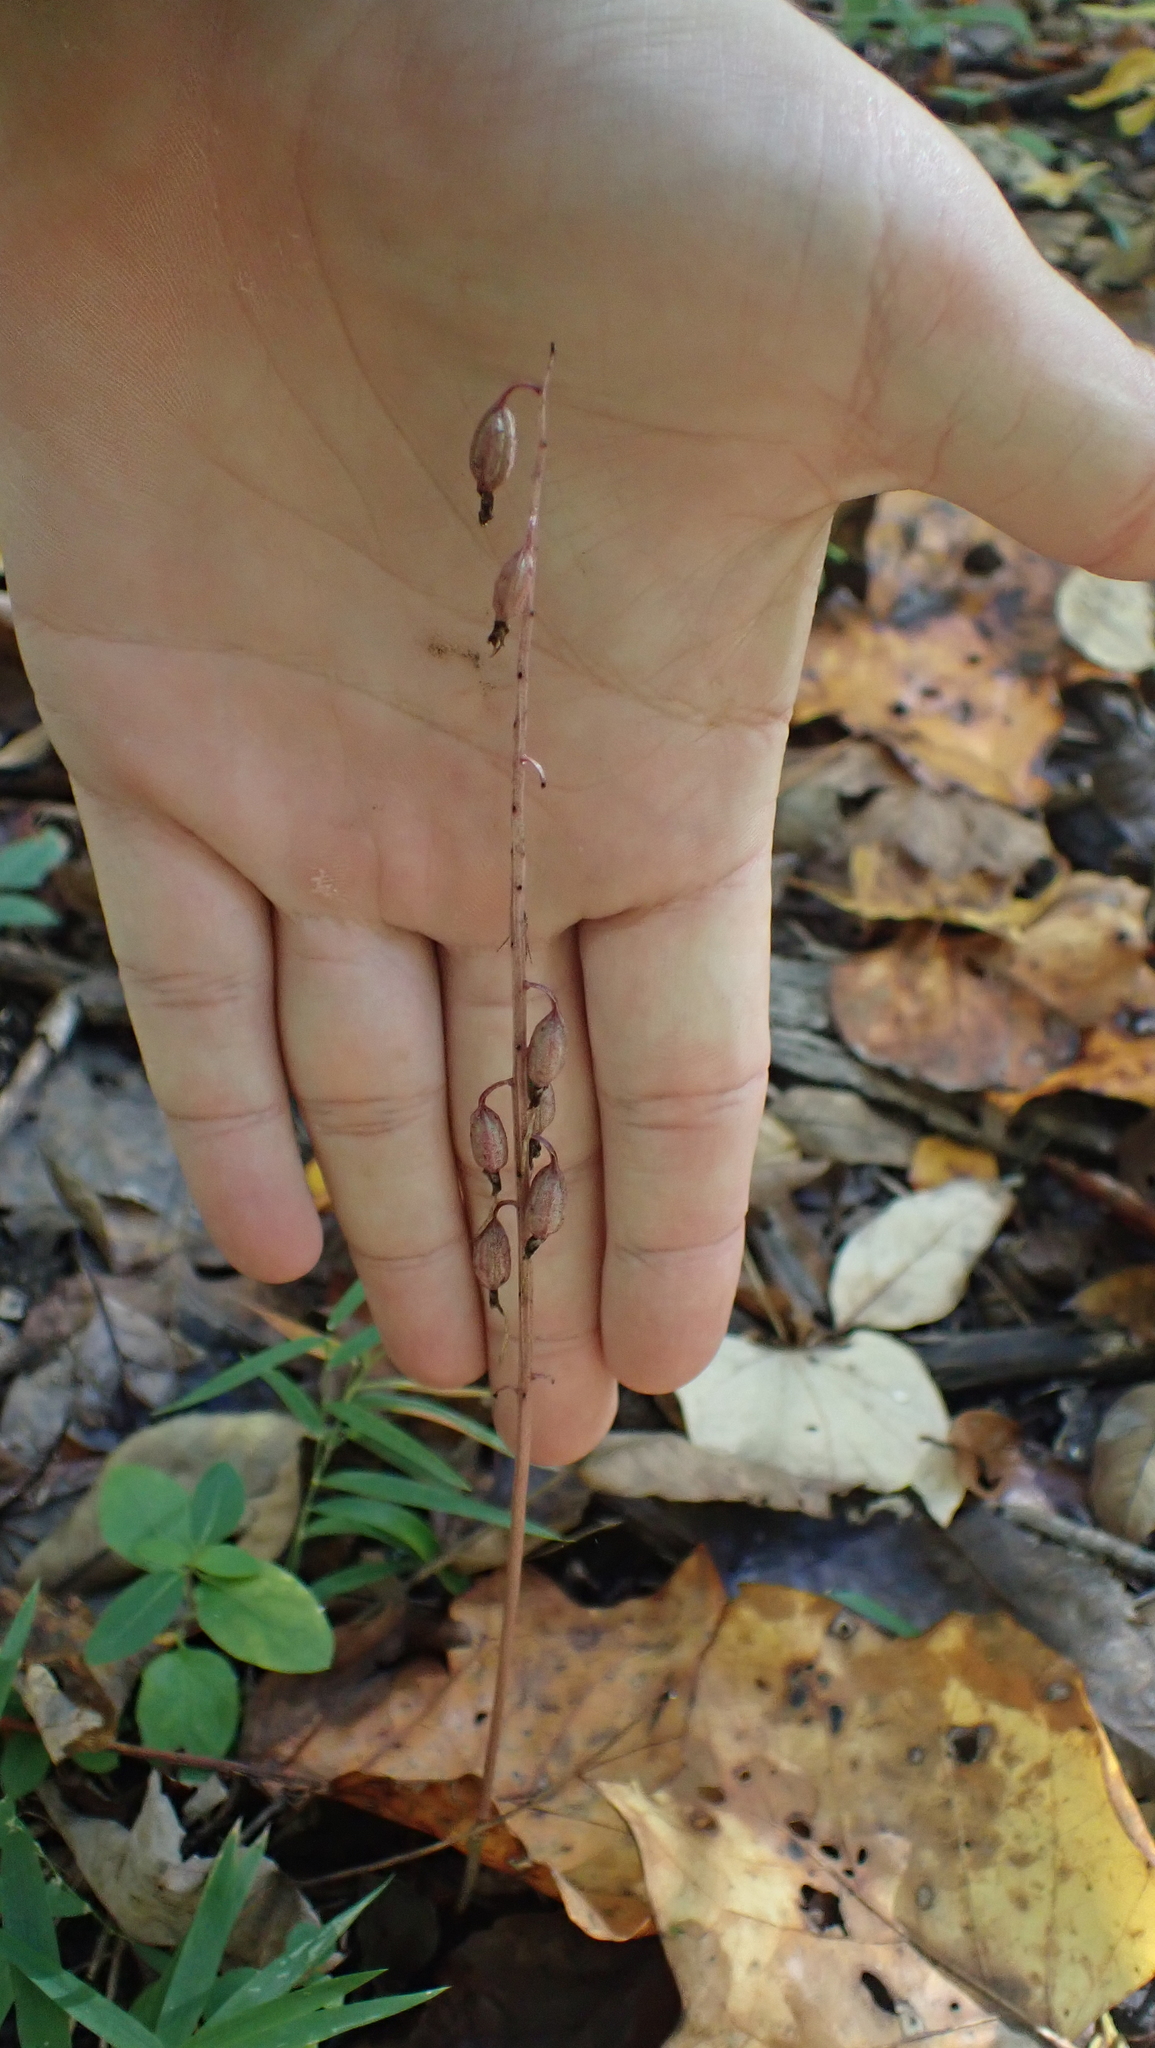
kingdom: Plantae
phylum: Tracheophyta
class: Liliopsida
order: Asparagales
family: Orchidaceae
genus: Tipularia
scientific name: Tipularia discolor
